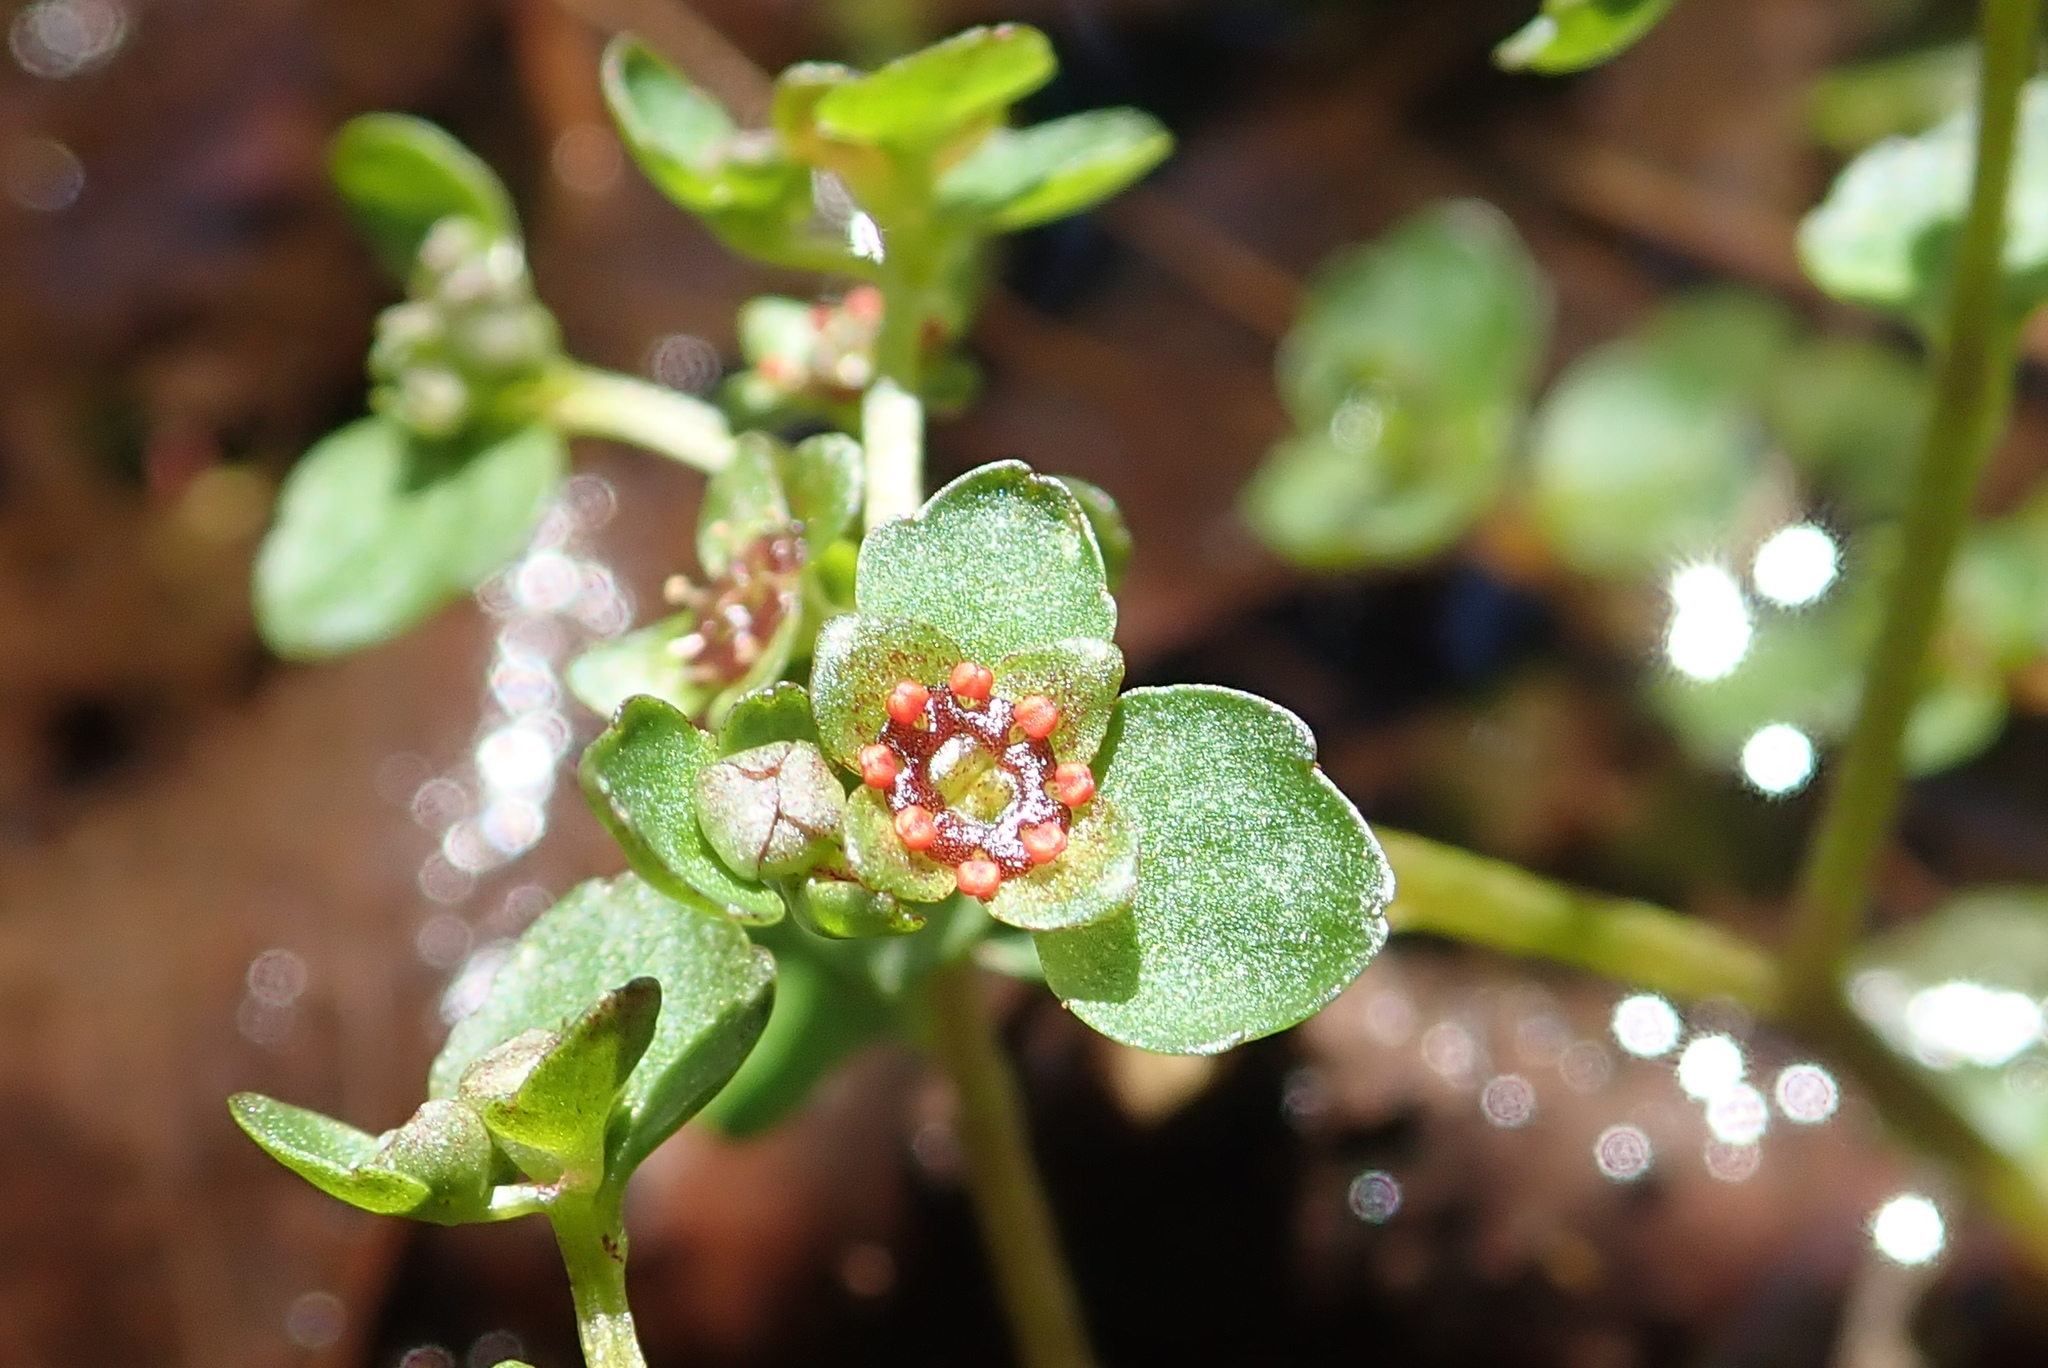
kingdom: Plantae
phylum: Tracheophyta
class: Magnoliopsida
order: Saxifragales
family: Saxifragaceae
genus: Chrysosplenium
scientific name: Chrysosplenium americanum
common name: American golden-saxifrage
